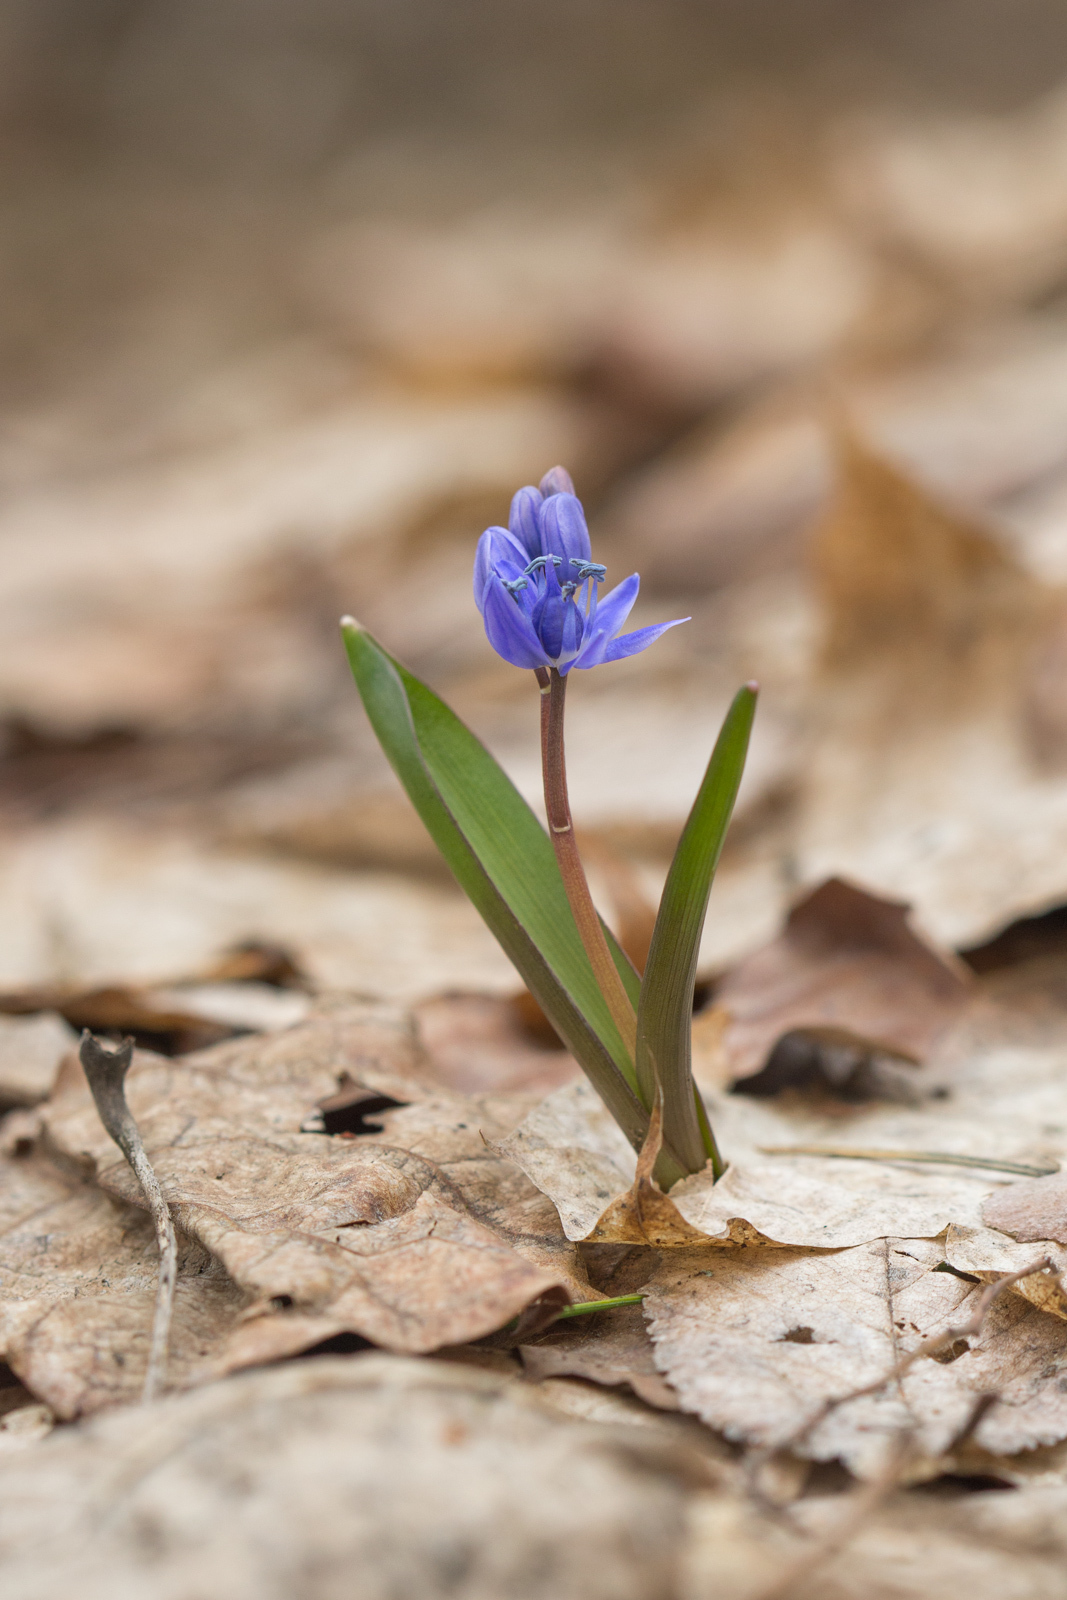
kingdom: Plantae
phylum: Tracheophyta
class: Liliopsida
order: Asparagales
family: Asparagaceae
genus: Scilla
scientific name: Scilla bifolia
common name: Alpine squill
